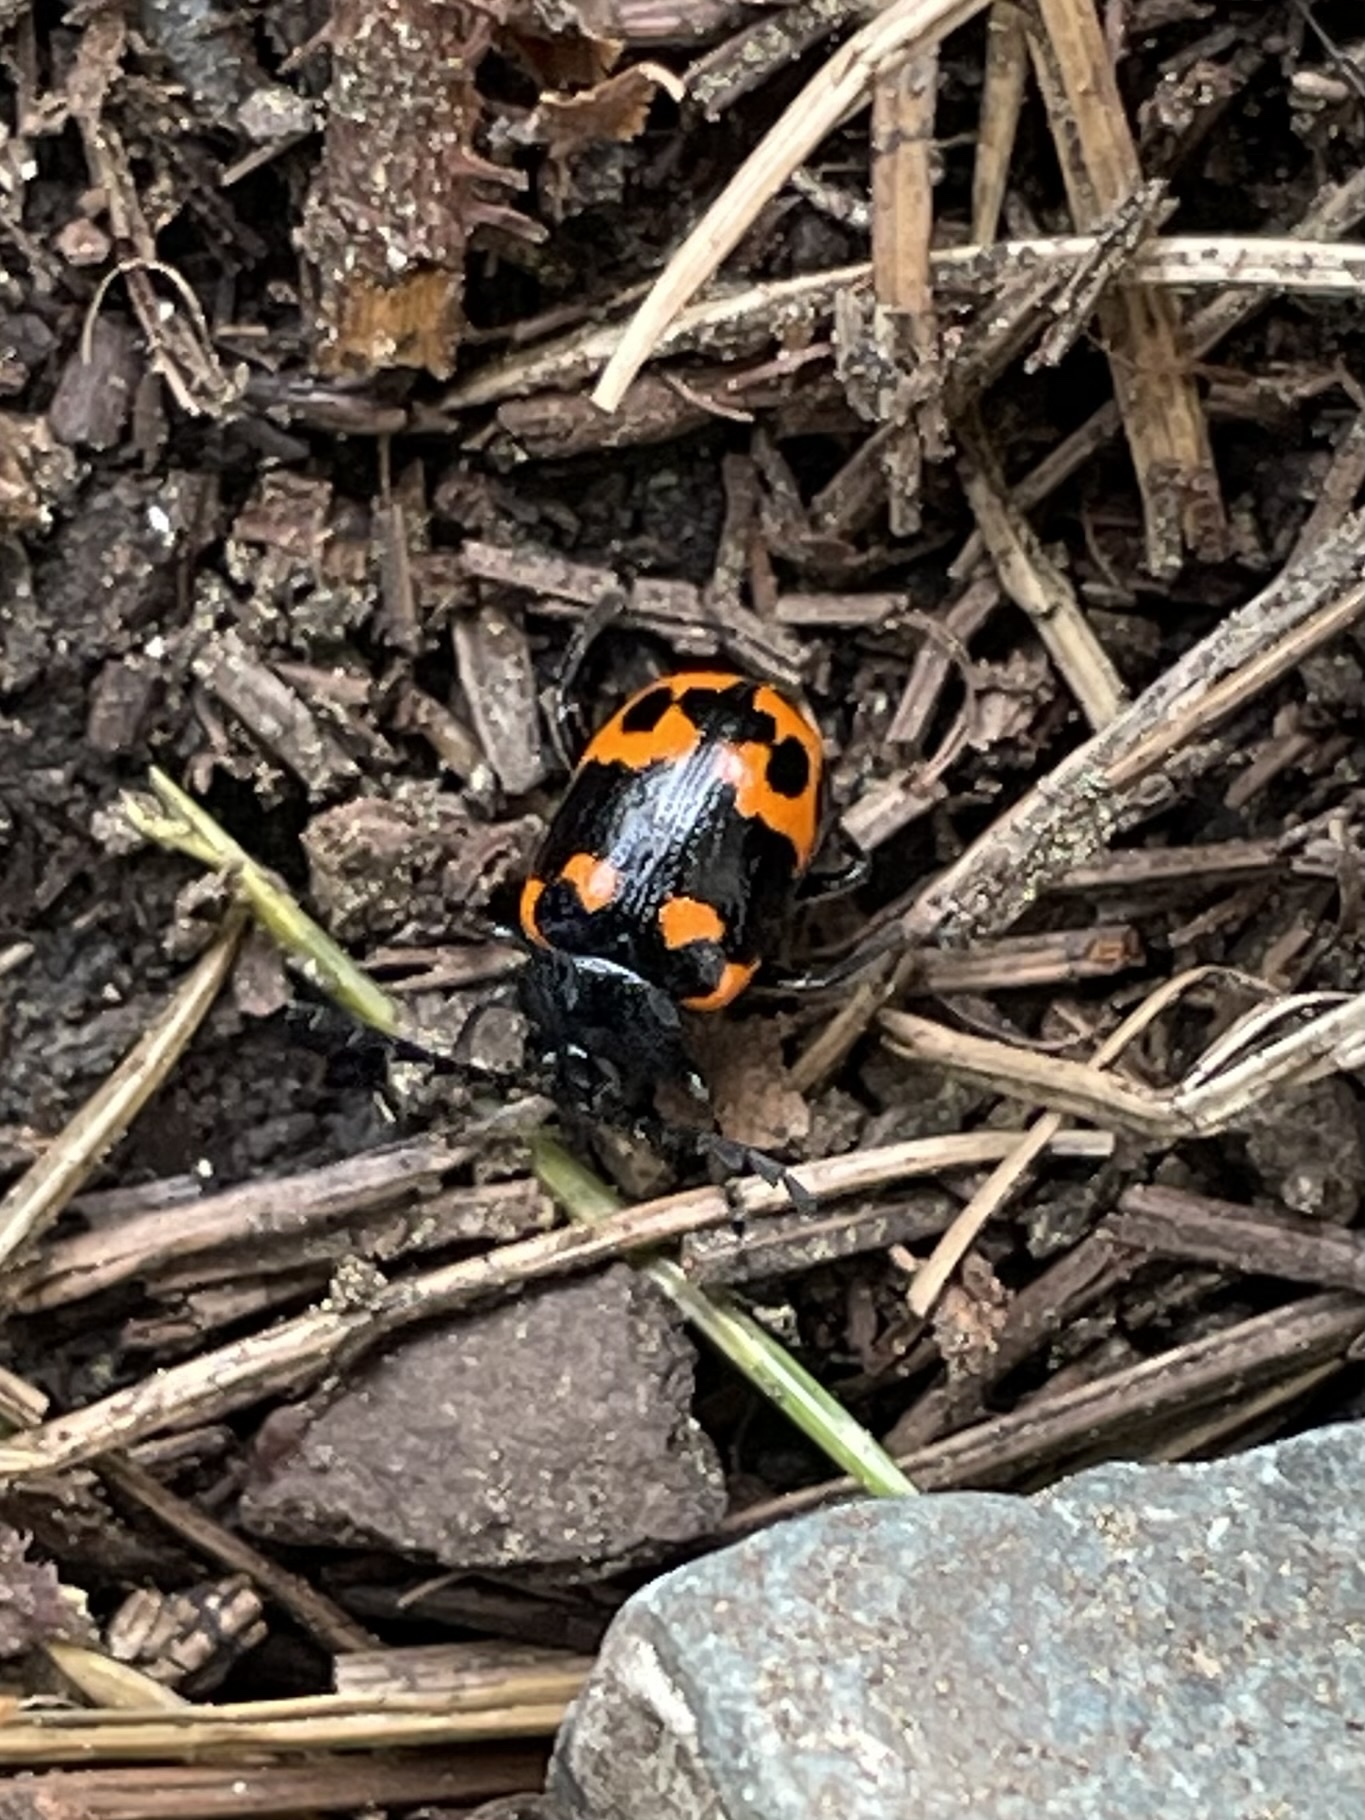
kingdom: Animalia
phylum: Arthropoda
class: Insecta
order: Coleoptera
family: Chrysomelidae
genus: Gallerucida
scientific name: Gallerucida bifasciata
